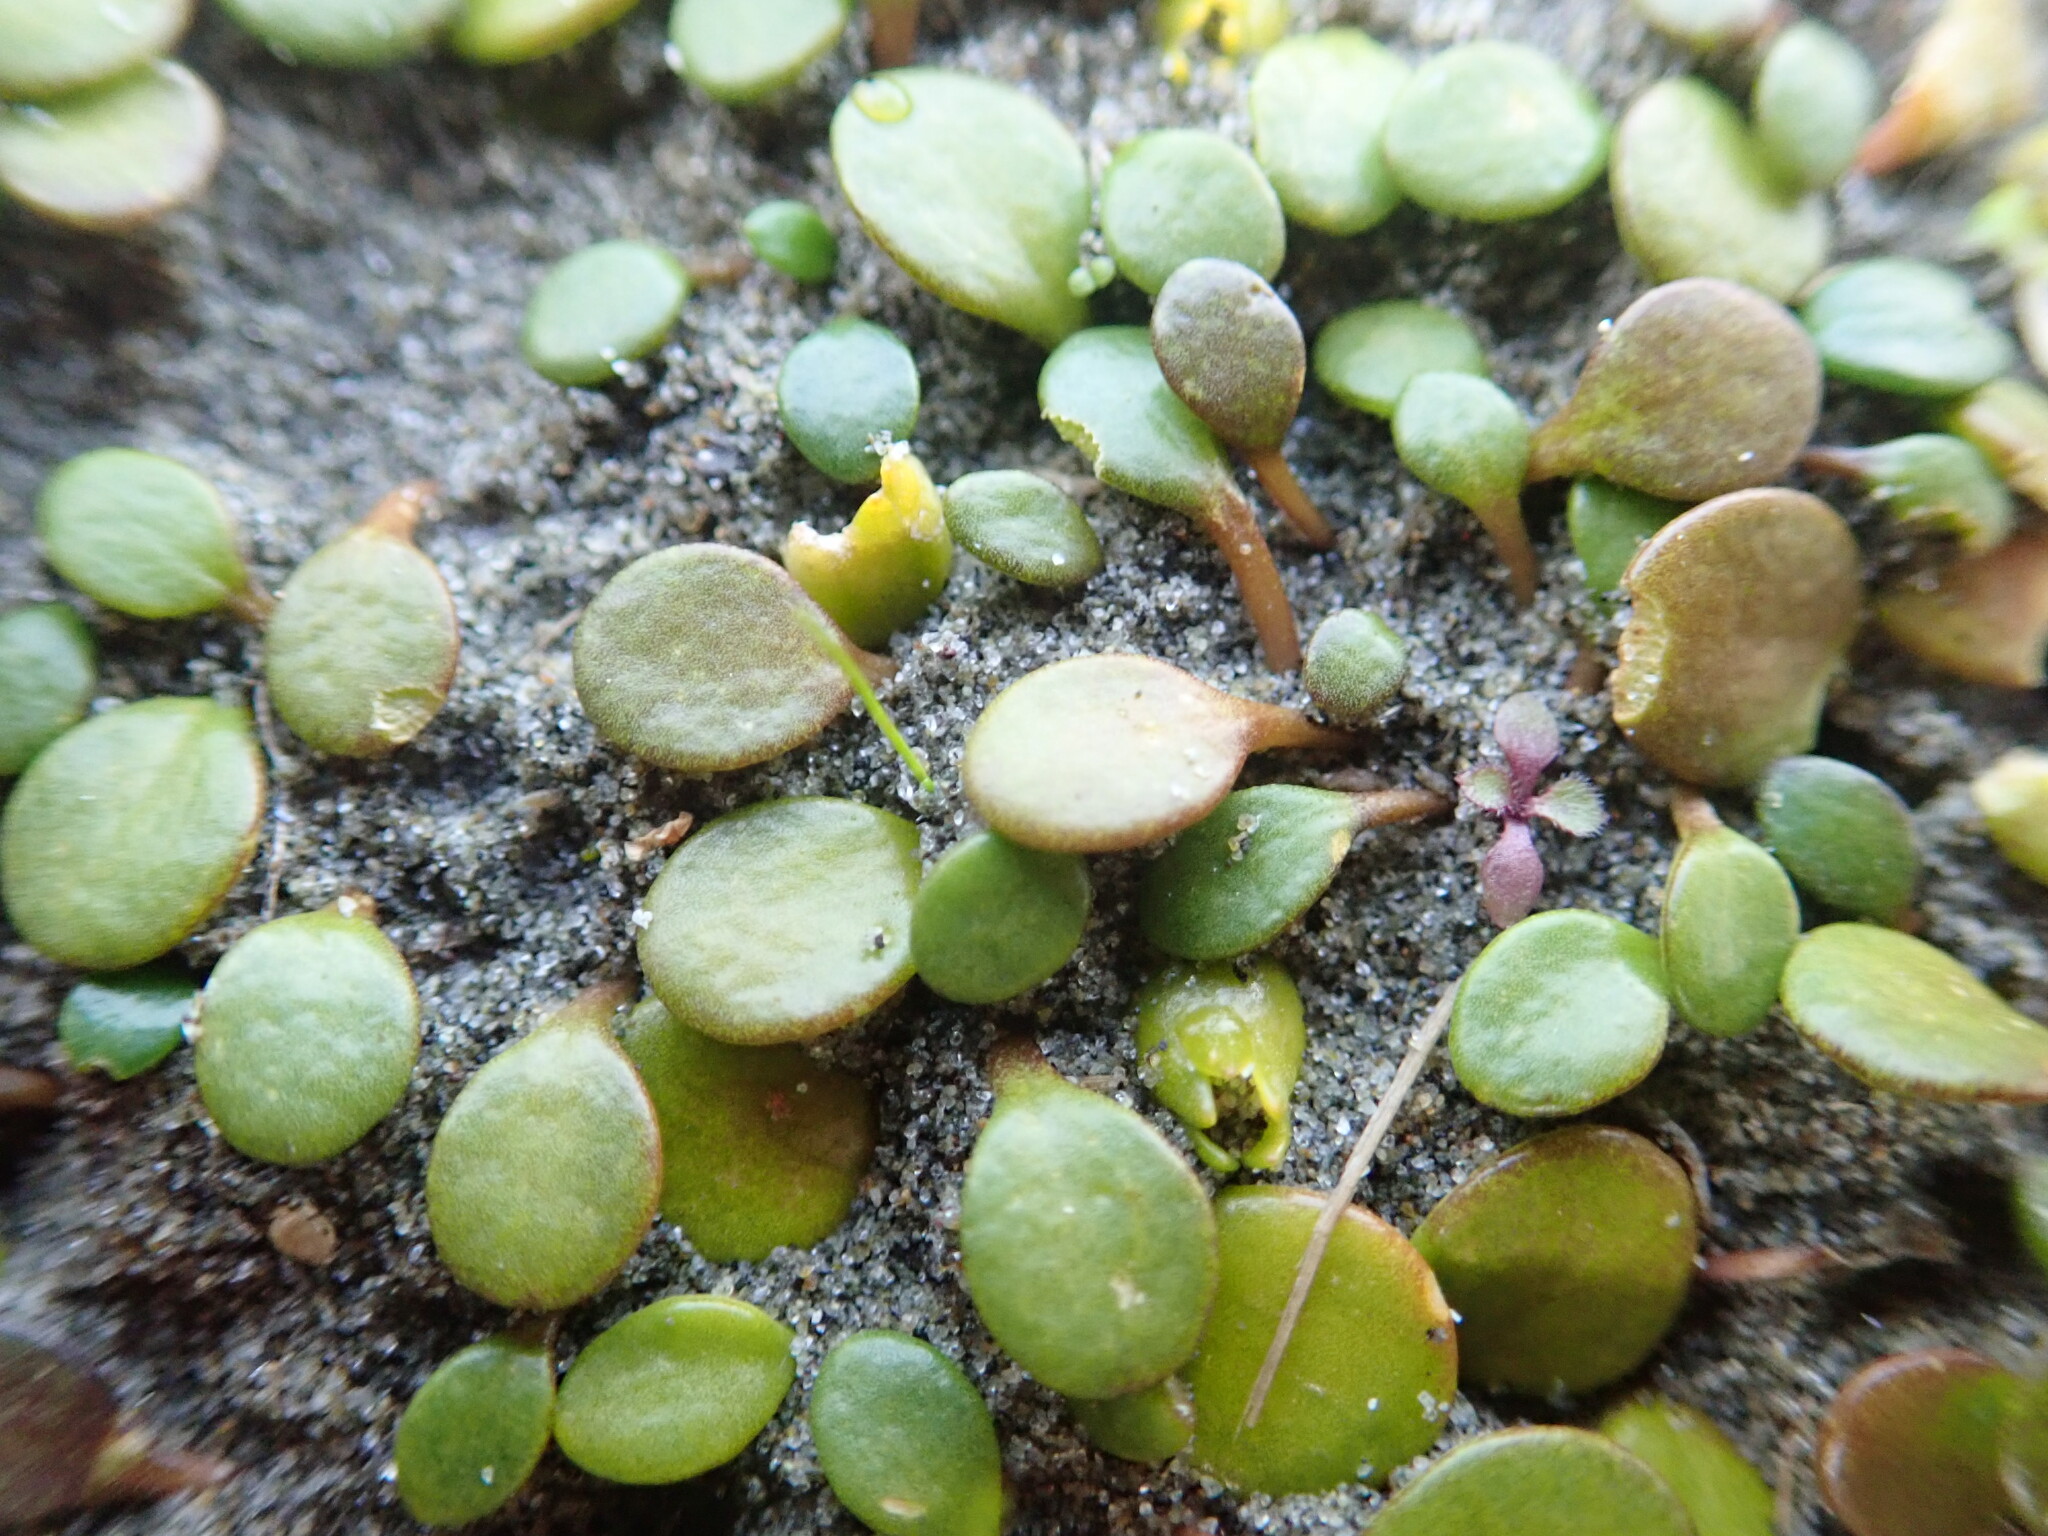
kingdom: Plantae
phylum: Tracheophyta
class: Magnoliopsida
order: Asterales
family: Goodeniaceae
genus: Goodenia
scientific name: Goodenia heenanii
